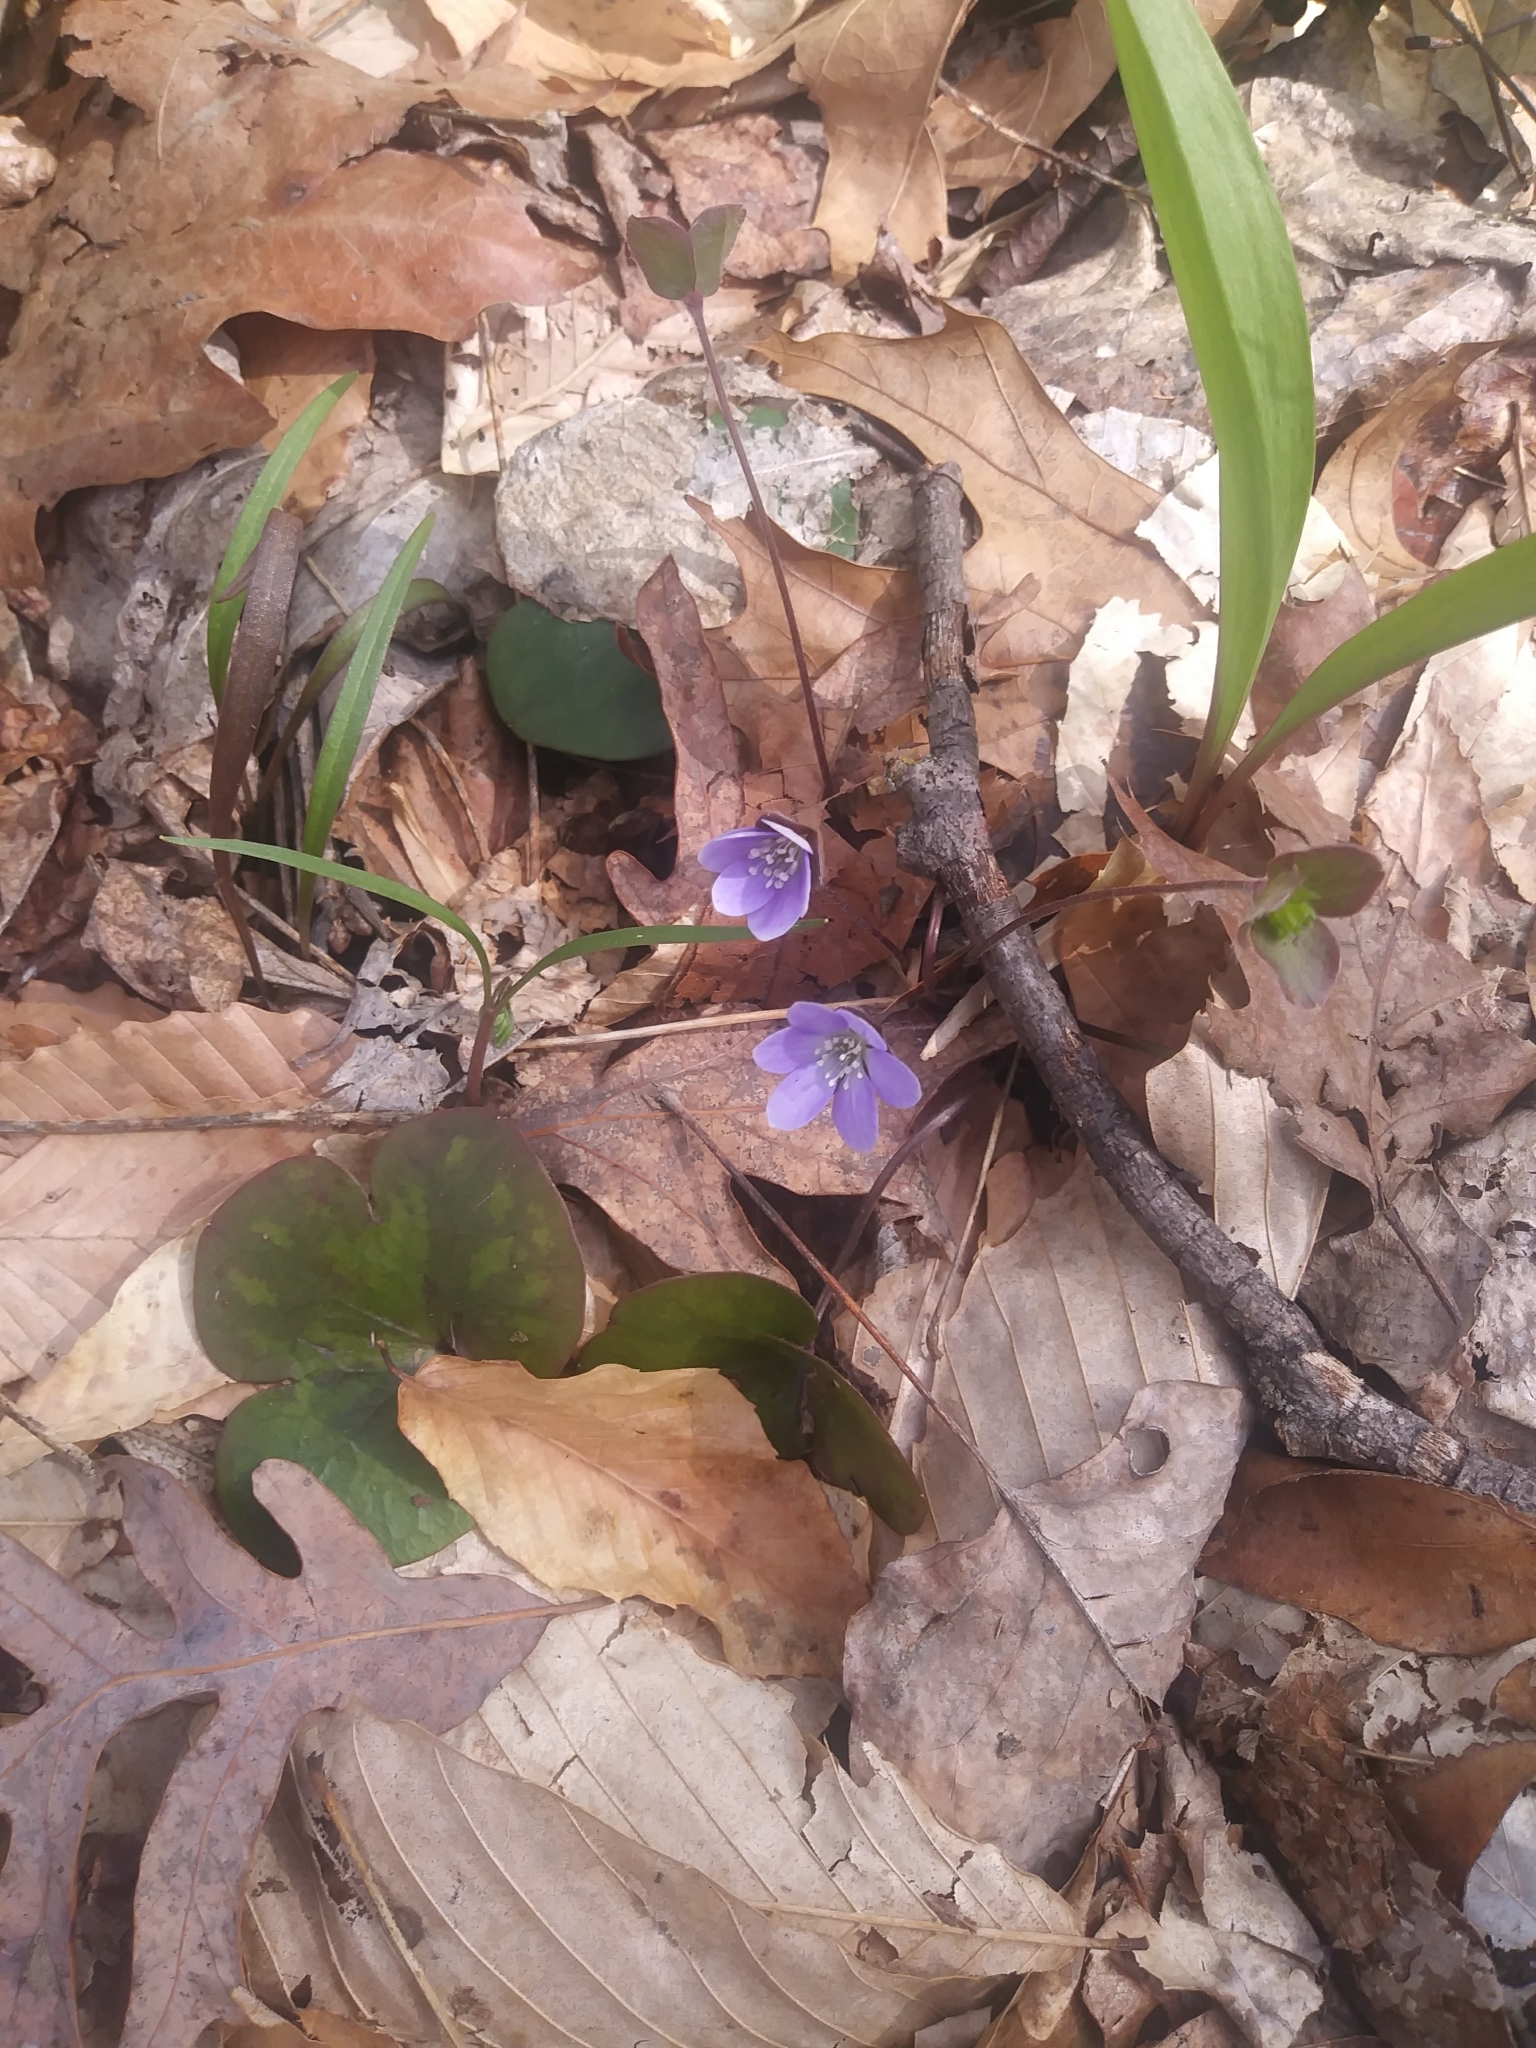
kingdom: Plantae
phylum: Tracheophyta
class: Magnoliopsida
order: Ranunculales
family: Ranunculaceae
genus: Hepatica
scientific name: Hepatica americana
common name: American hepatica
